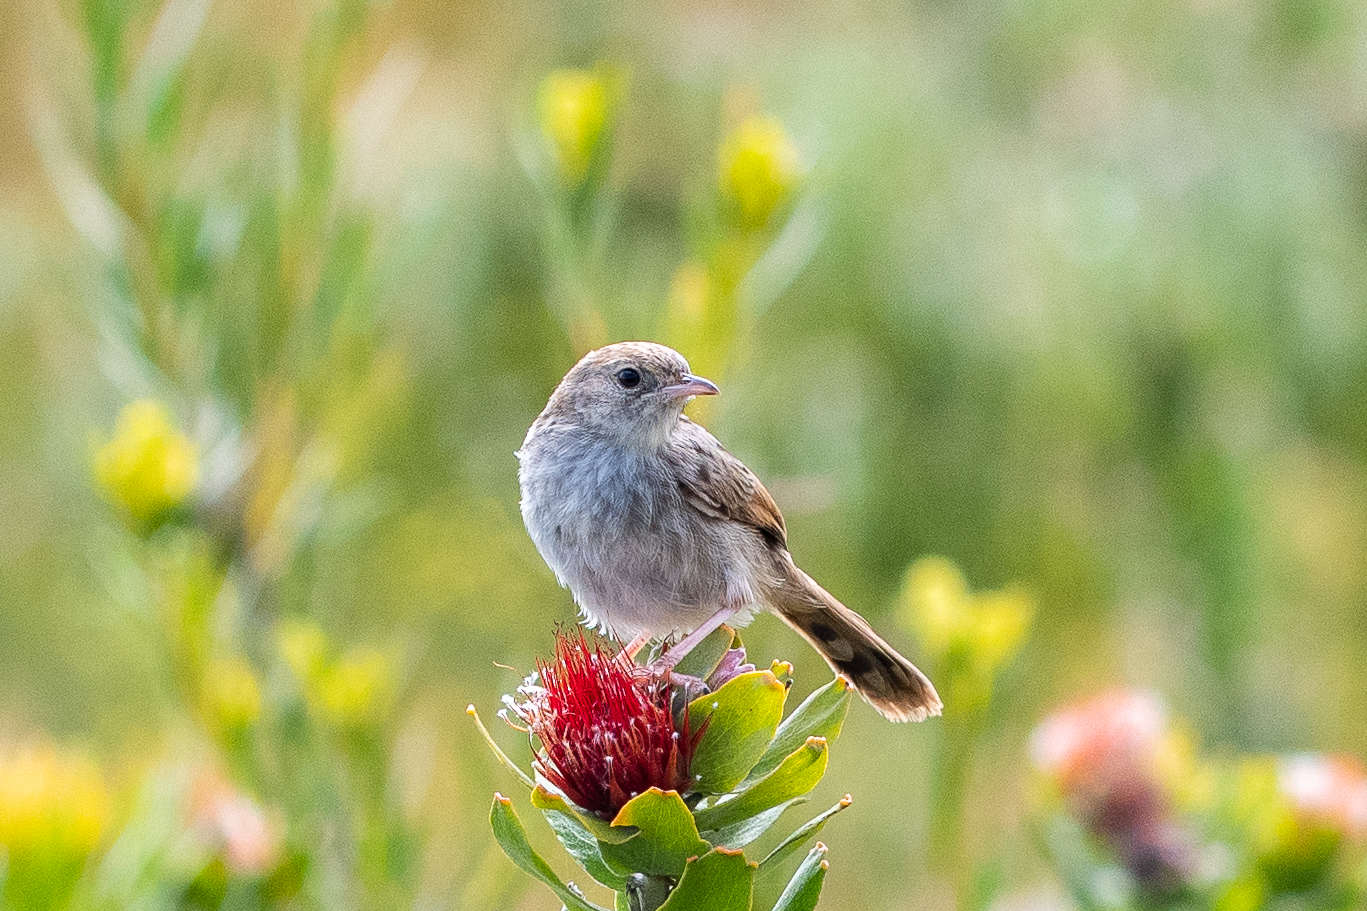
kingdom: Animalia
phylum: Chordata
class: Aves
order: Passeriformes
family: Cisticolidae
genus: Cisticola
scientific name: Cisticola subruficapilla
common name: Grey-backed cisticola
